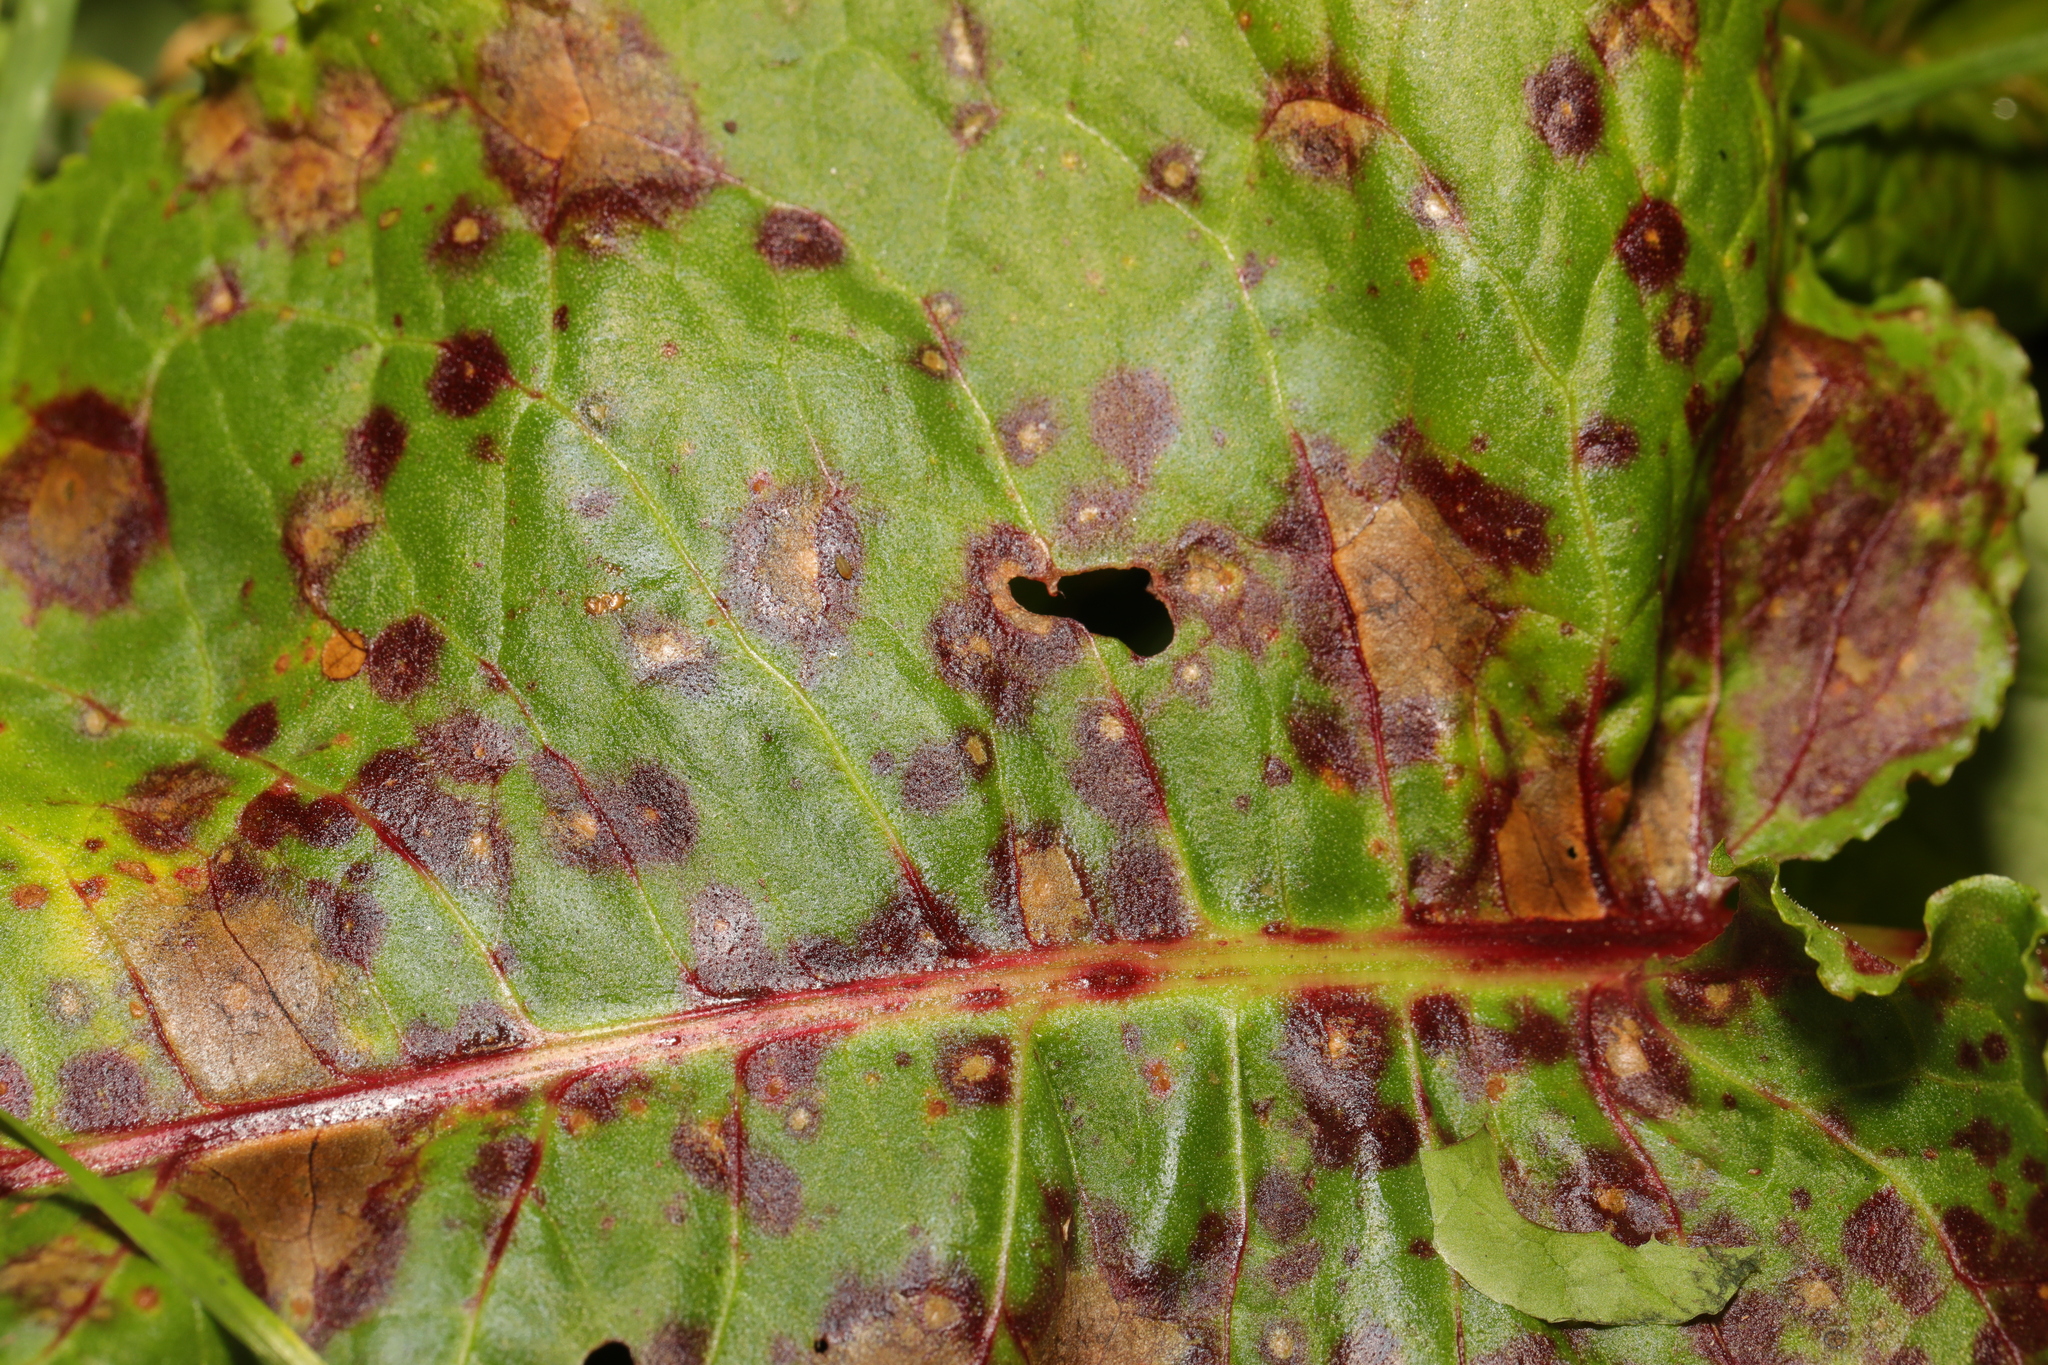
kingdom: Fungi
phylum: Ascomycota
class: Dothideomycetes
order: Mycosphaerellales
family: Mycosphaerellaceae
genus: Ramularia
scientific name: Ramularia rubella
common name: Red dock spot
